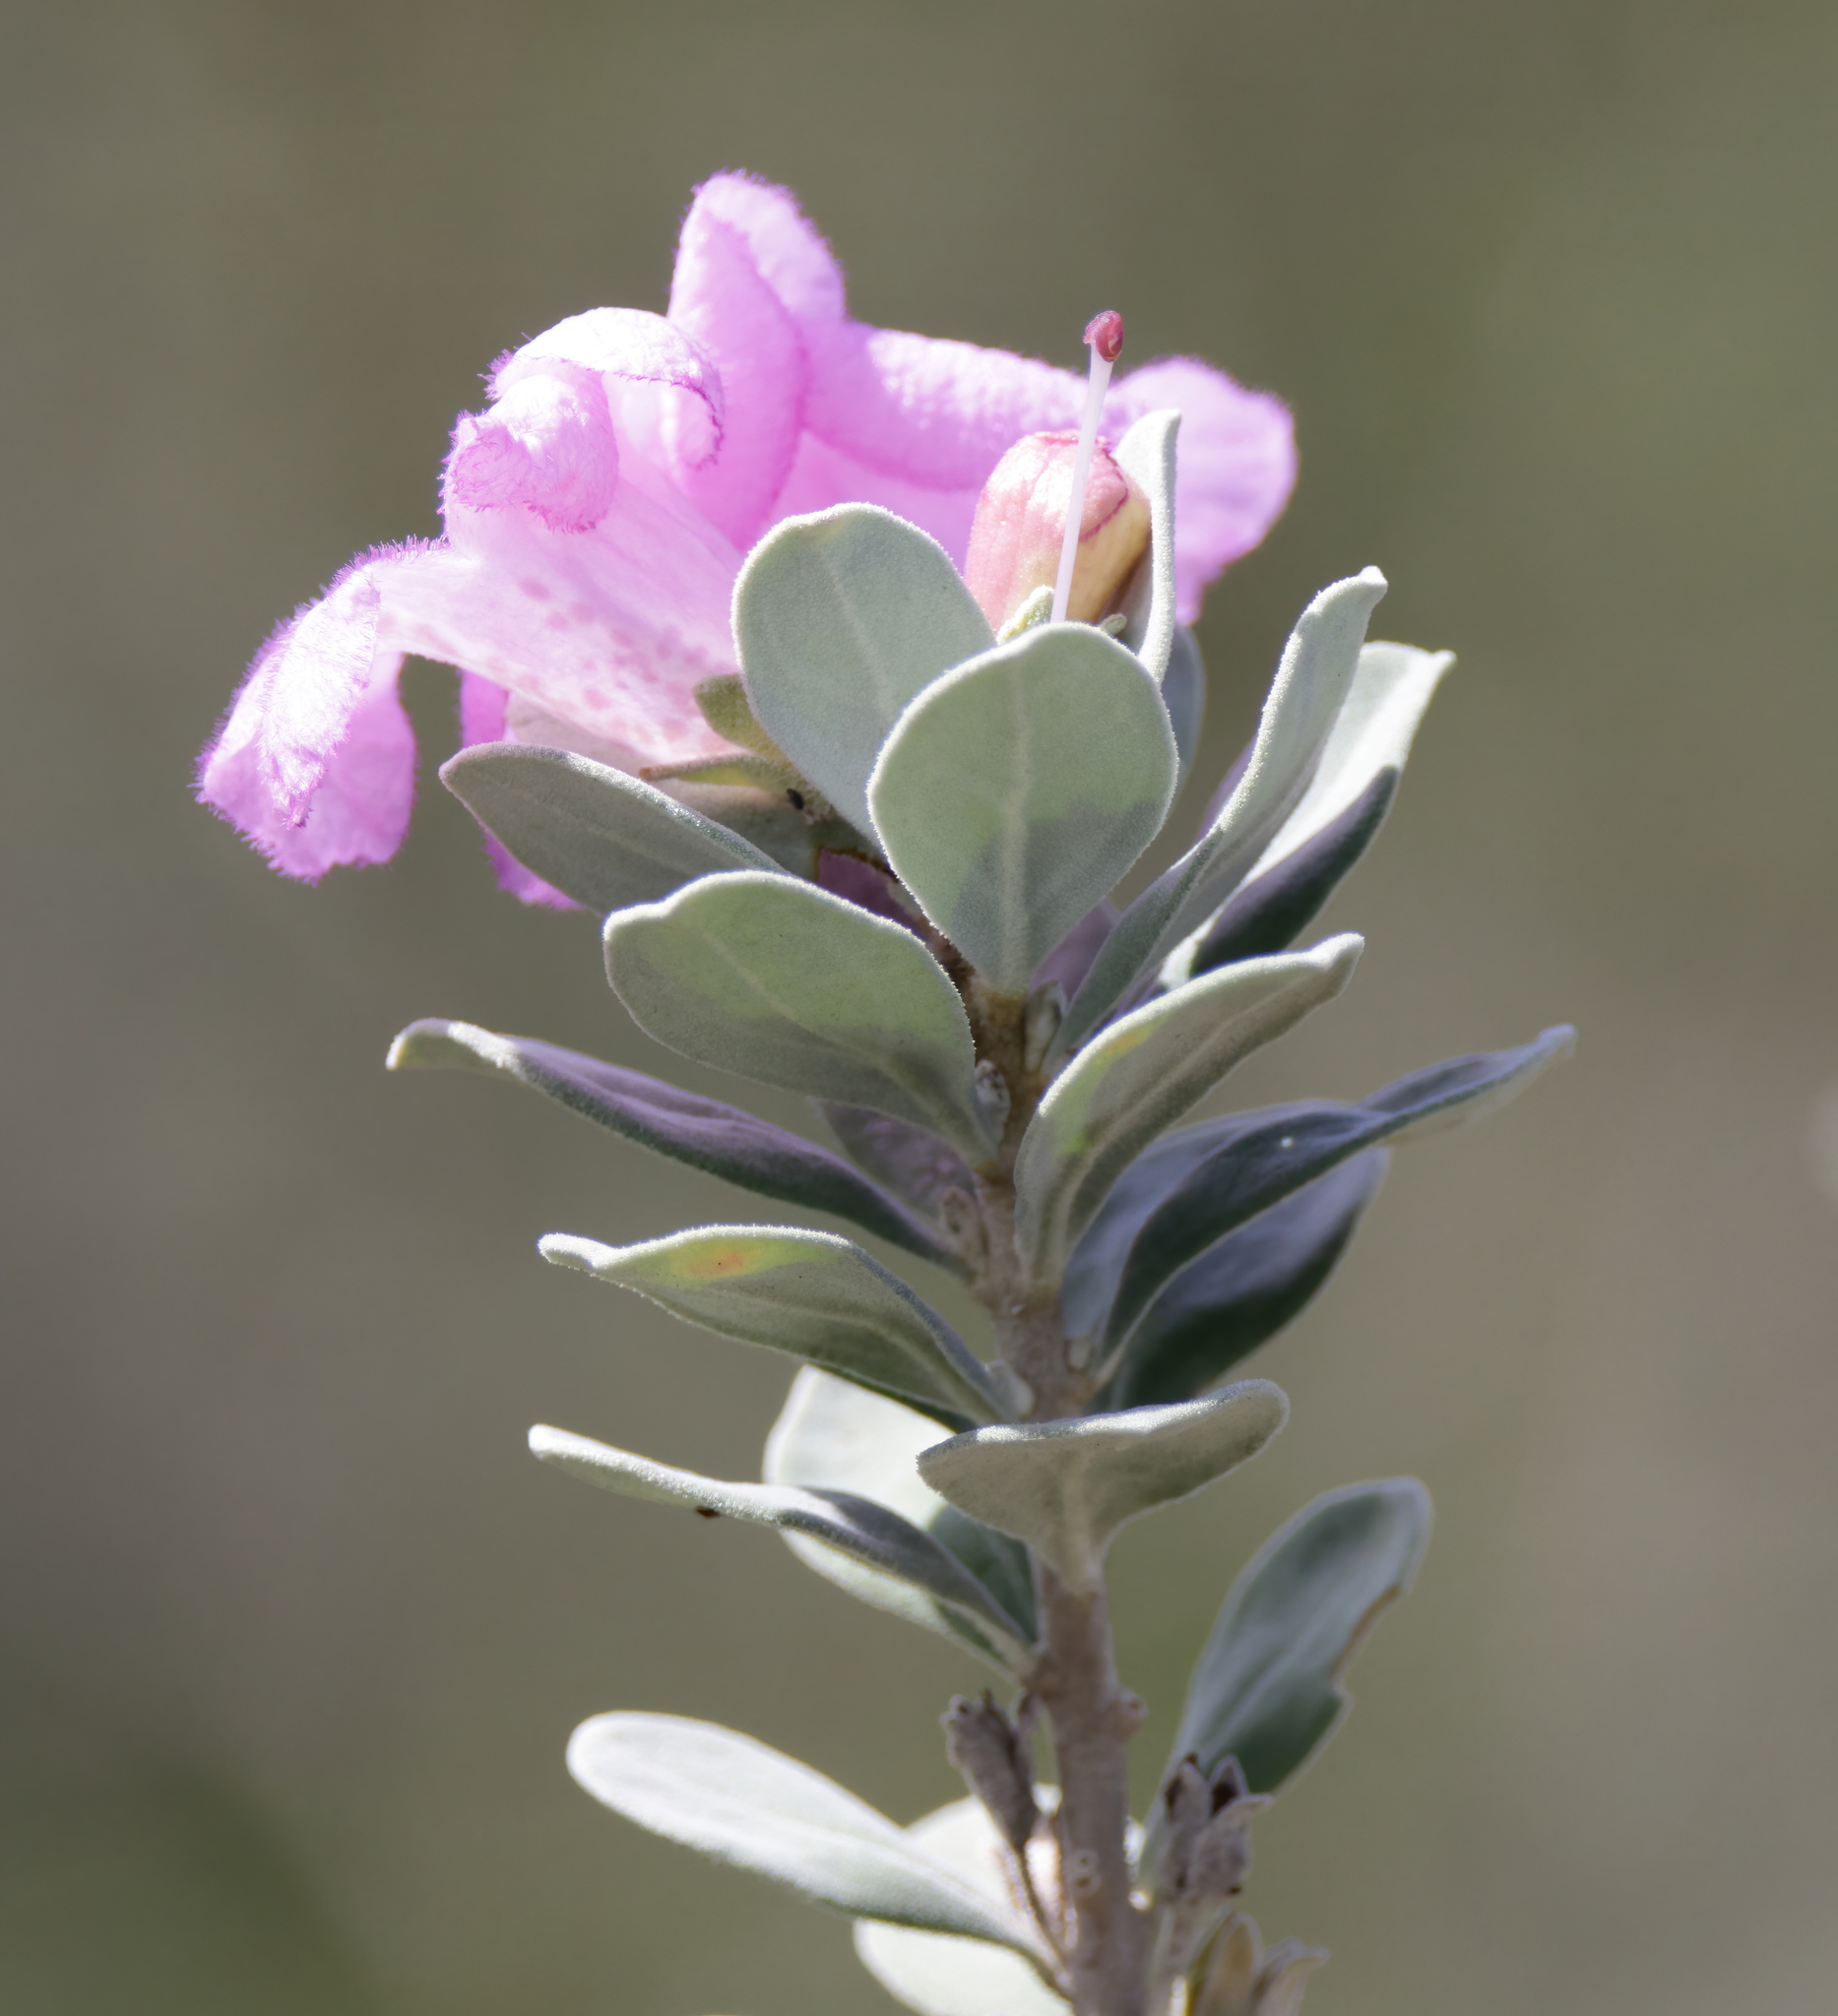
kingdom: Plantae
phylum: Tracheophyta
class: Magnoliopsida
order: Lamiales
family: Scrophulariaceae
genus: Leucophyllum
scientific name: Leucophyllum frutescens
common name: Texas silverleaf
